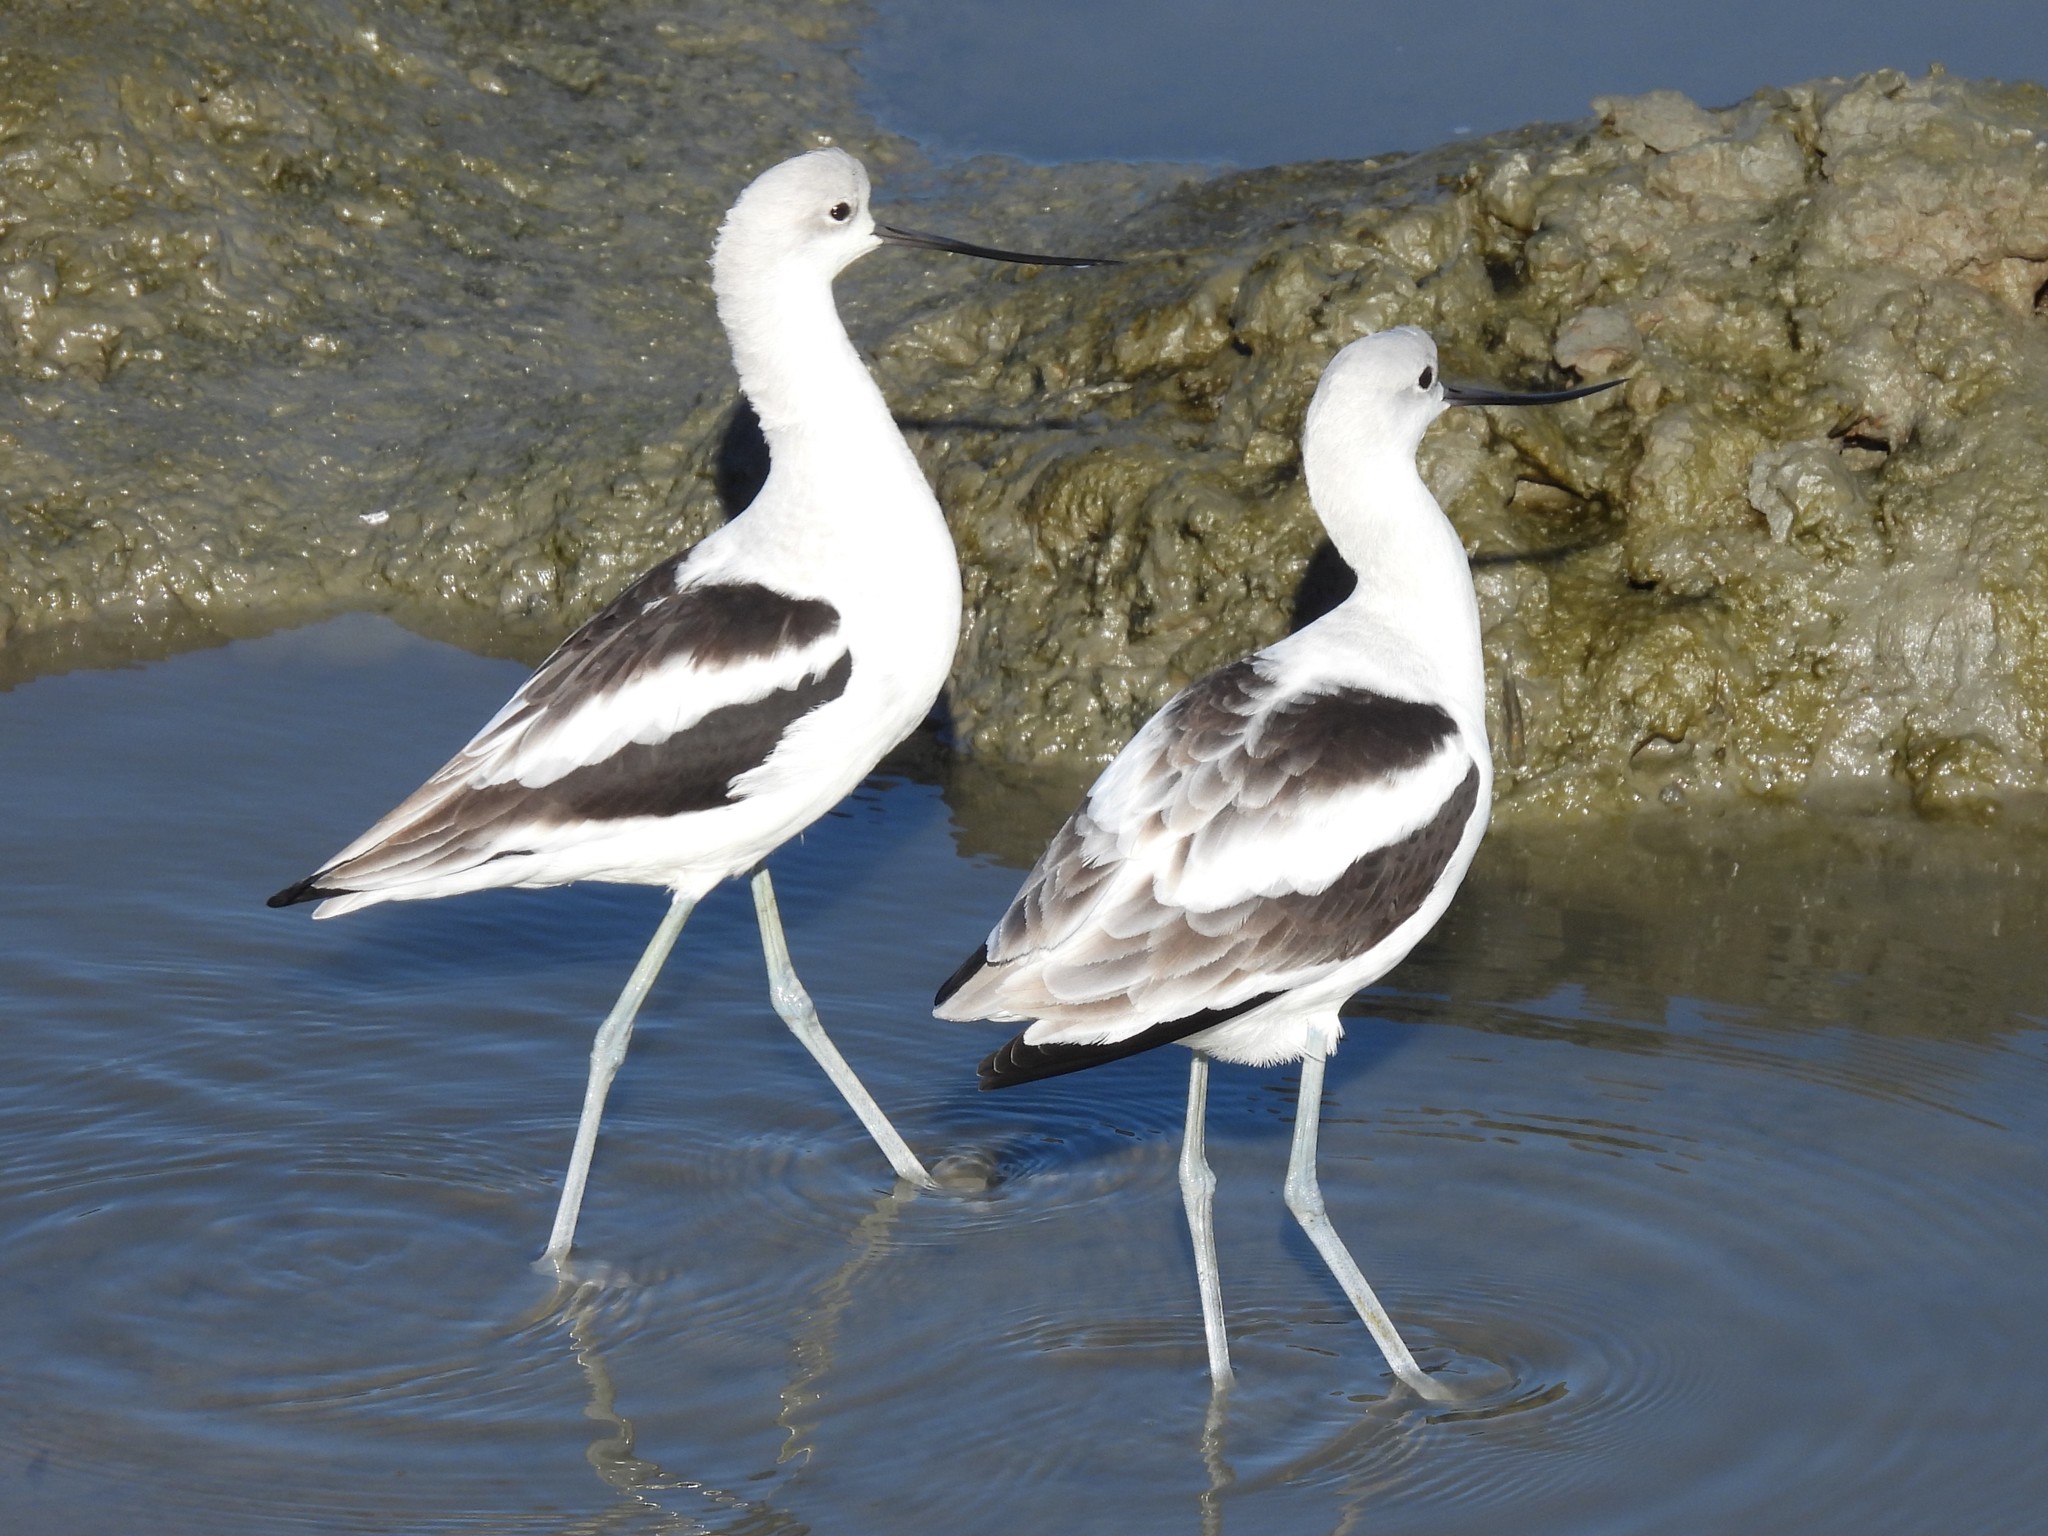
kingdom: Animalia
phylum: Chordata
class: Aves
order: Charadriiformes
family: Recurvirostridae
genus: Recurvirostra
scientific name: Recurvirostra americana
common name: American avocet
